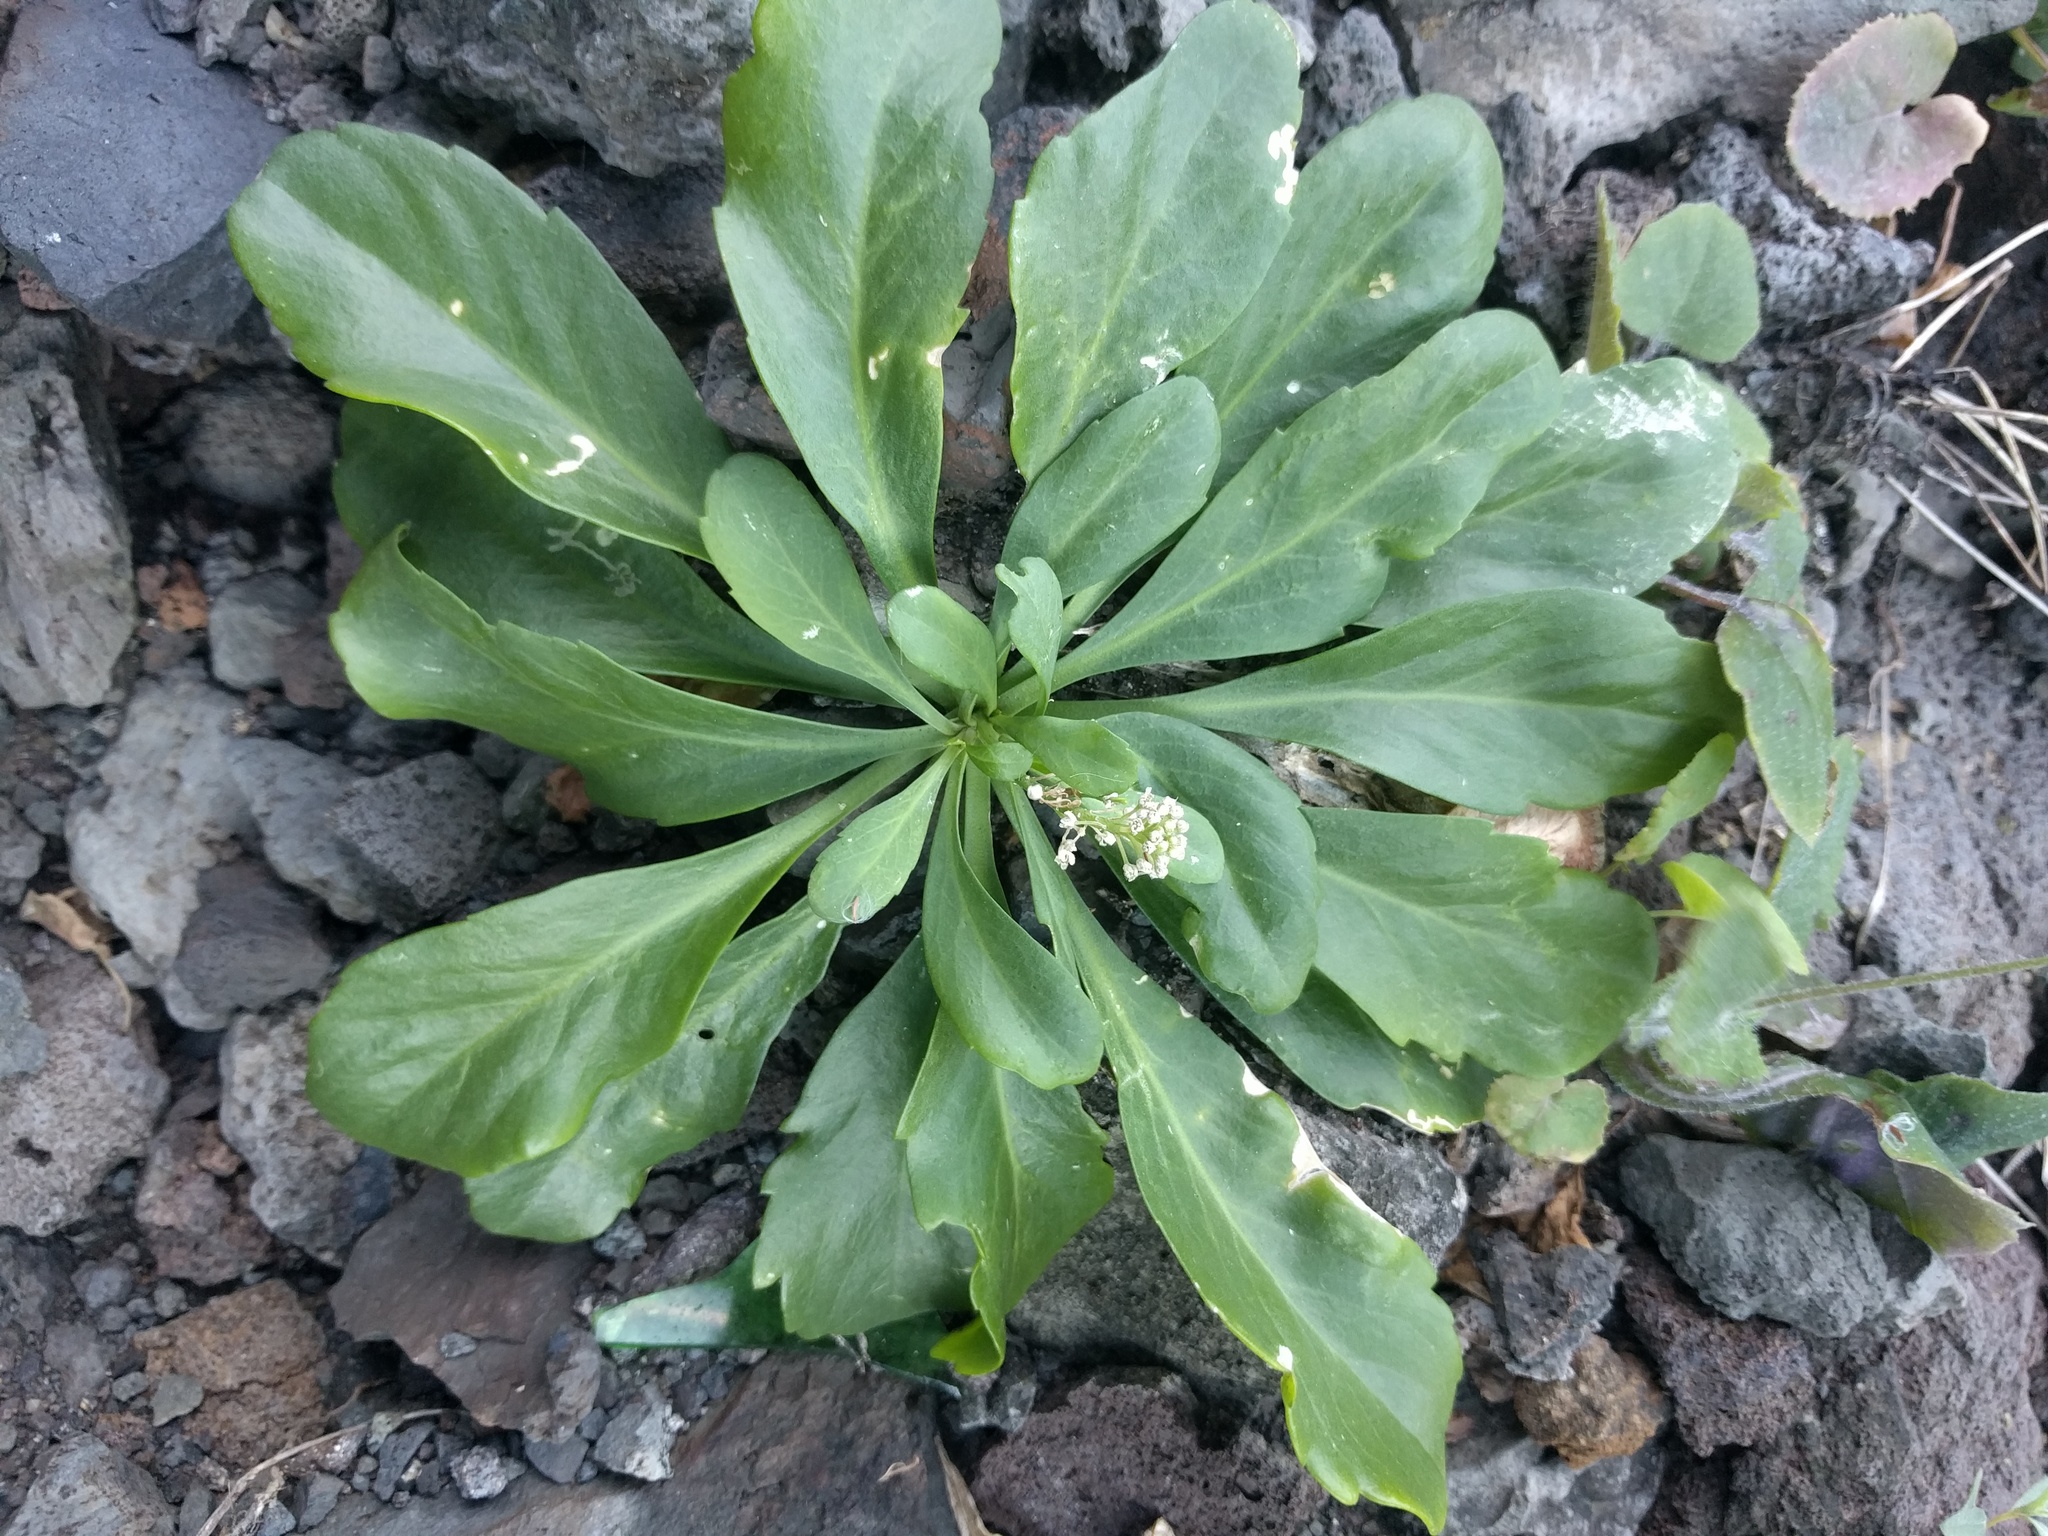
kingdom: Plantae
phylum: Tracheophyta
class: Magnoliopsida
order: Brassicales
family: Brassicaceae
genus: Lepidium
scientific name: Lepidium owaihiense
